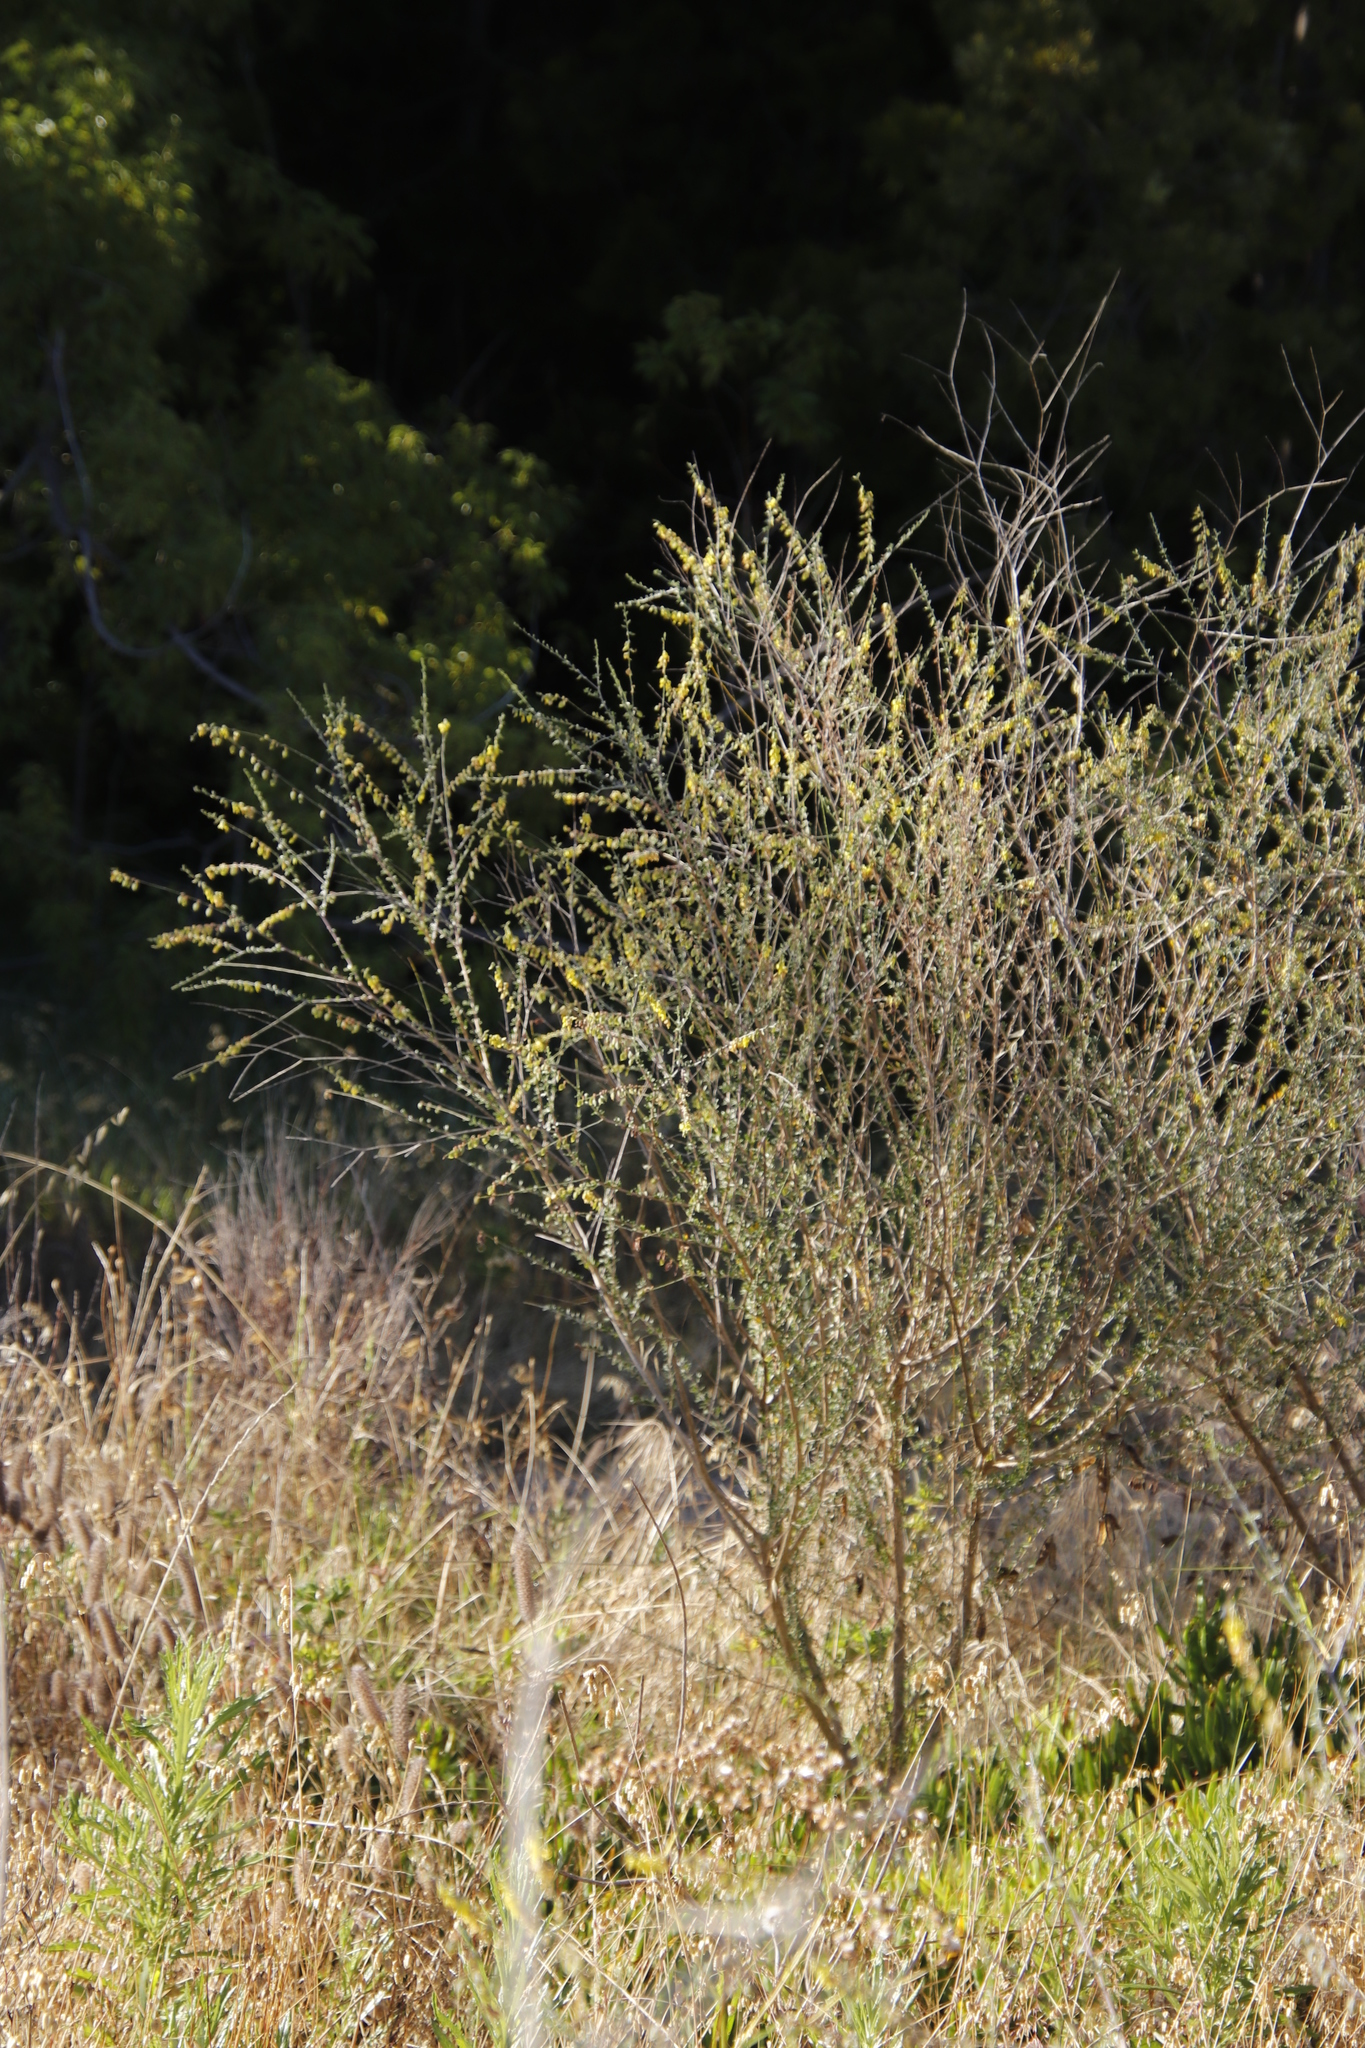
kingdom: Plantae
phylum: Tracheophyta
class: Magnoliopsida
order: Fabales
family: Fabaceae
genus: Wiborgia
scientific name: Wiborgia obcordata
